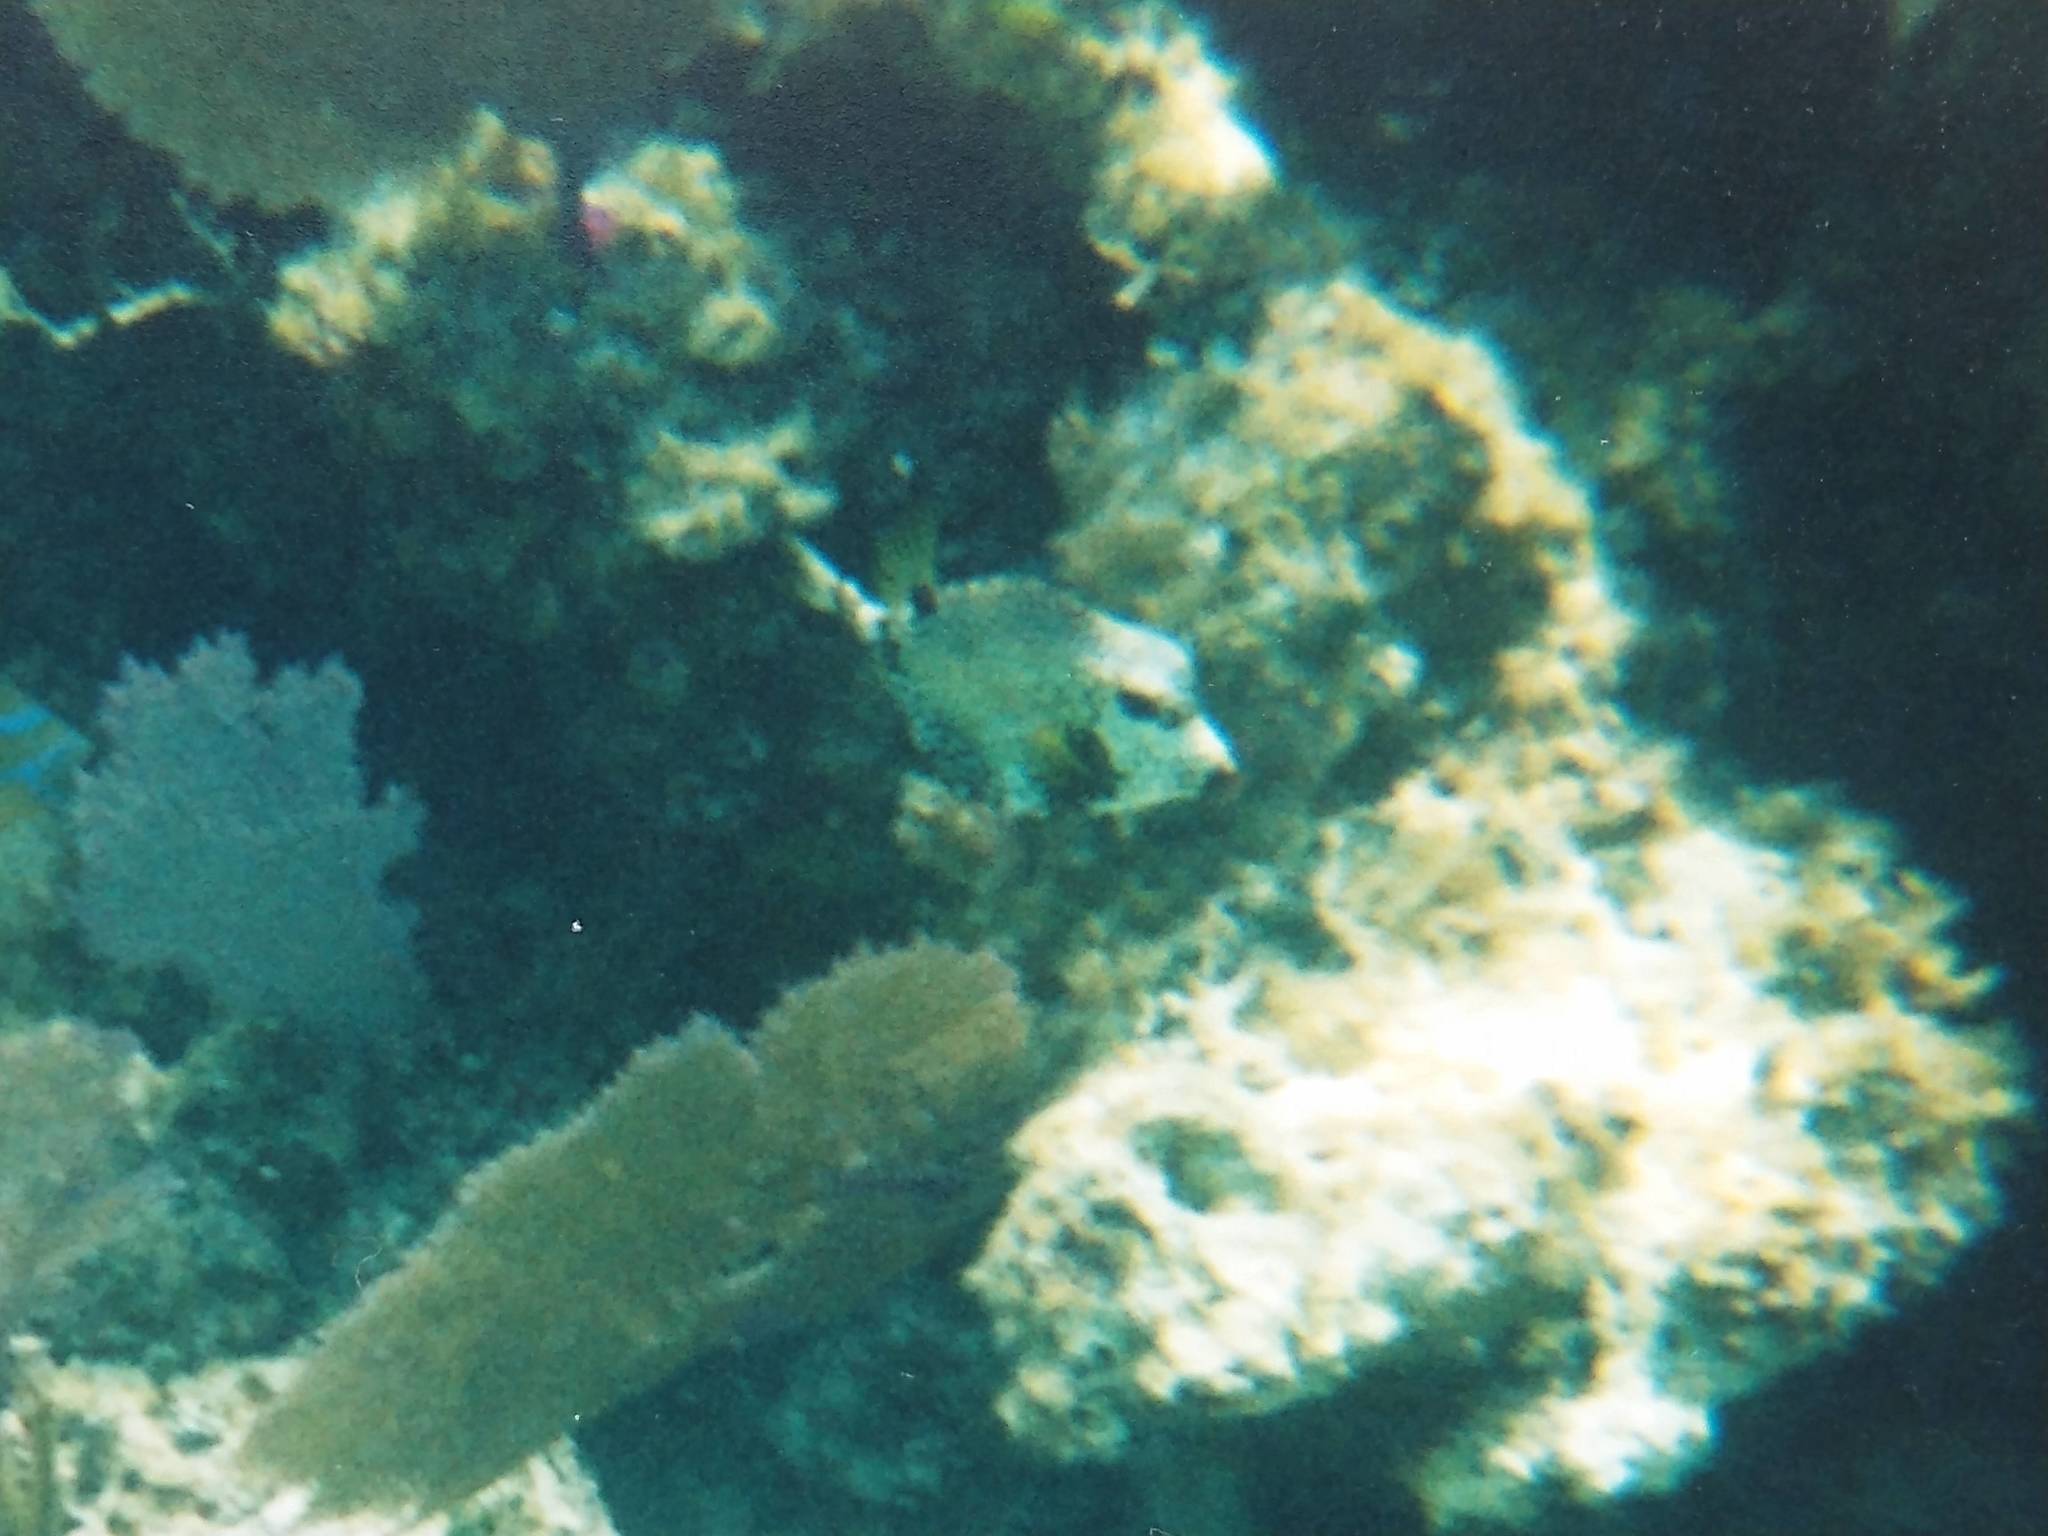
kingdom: Animalia
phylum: Chordata
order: Tetraodontiformes
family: Ostraciidae
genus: Lactophrys
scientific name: Lactophrys triqueter
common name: Smooth trunkfish
